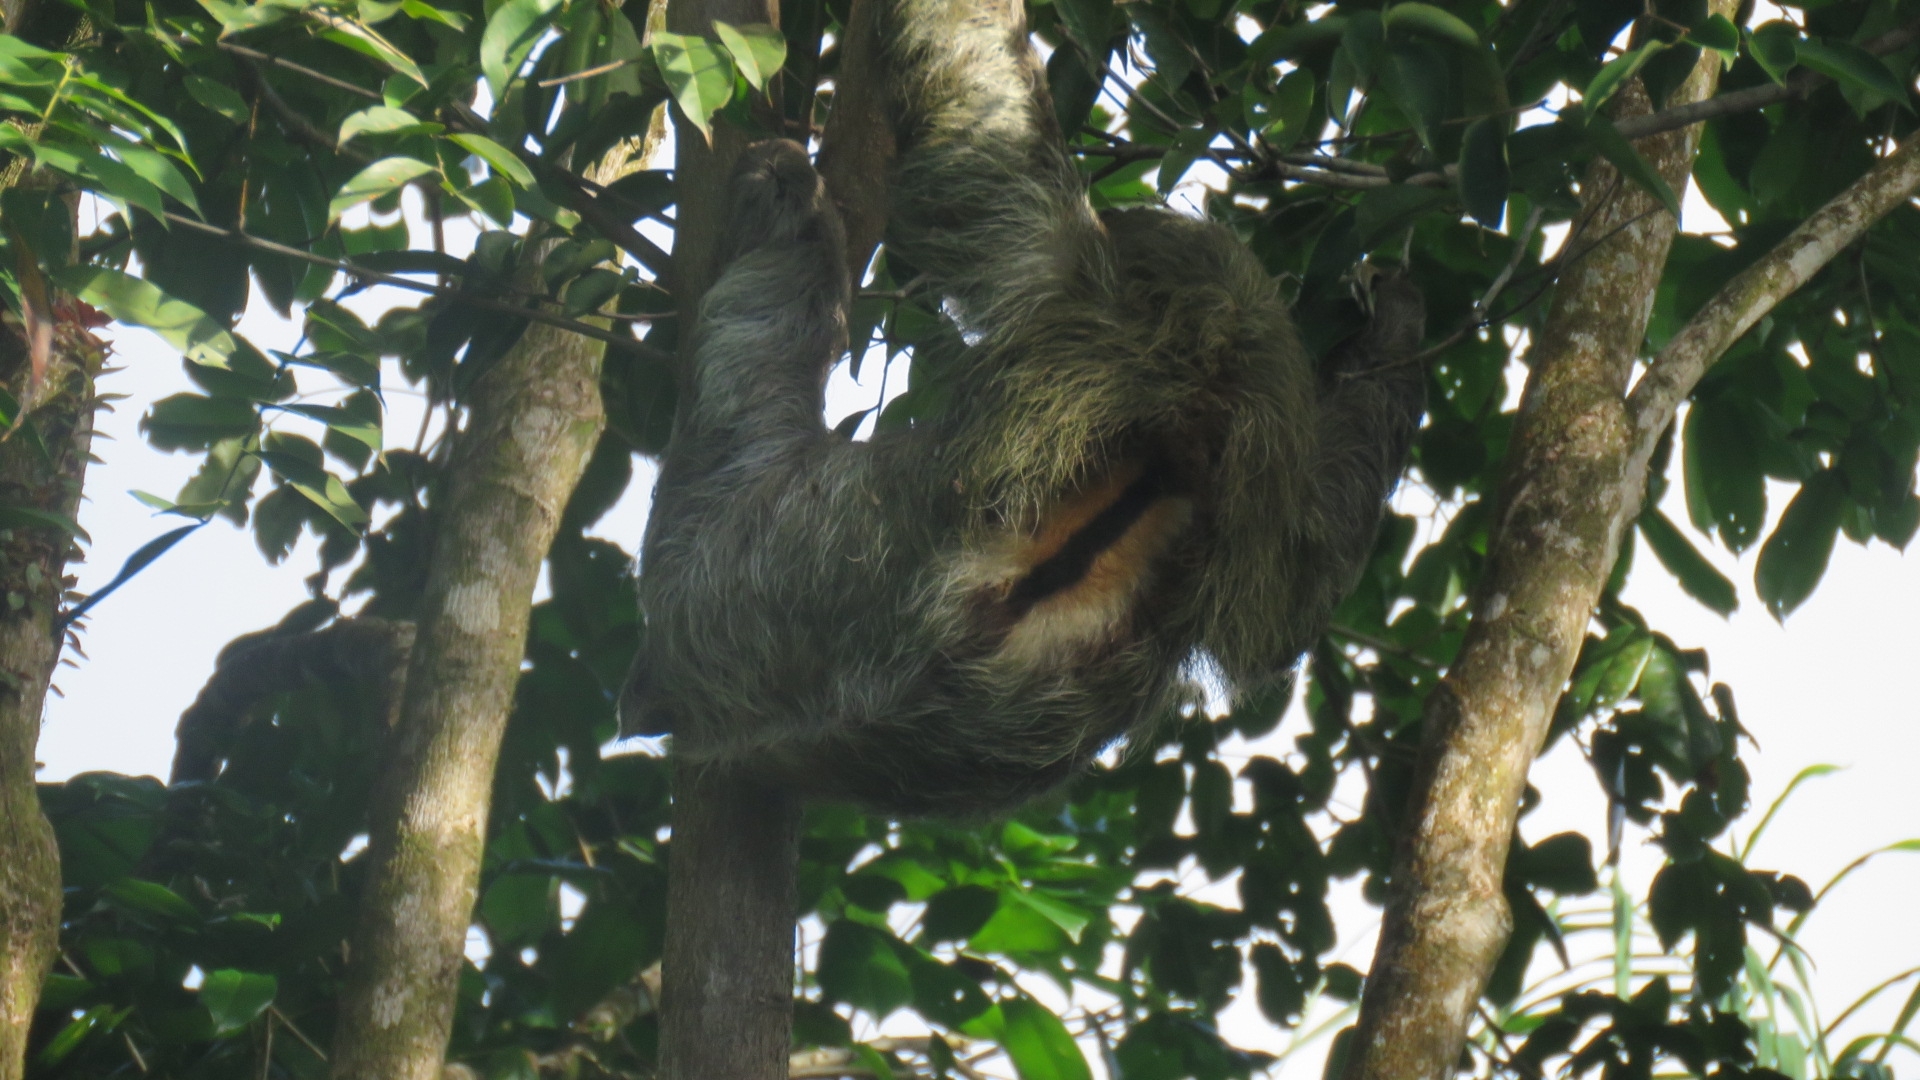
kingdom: Animalia
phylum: Chordata
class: Mammalia
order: Pilosa
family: Bradypodidae
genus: Bradypus
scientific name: Bradypus variegatus
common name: Brown-throated three-toed sloth
